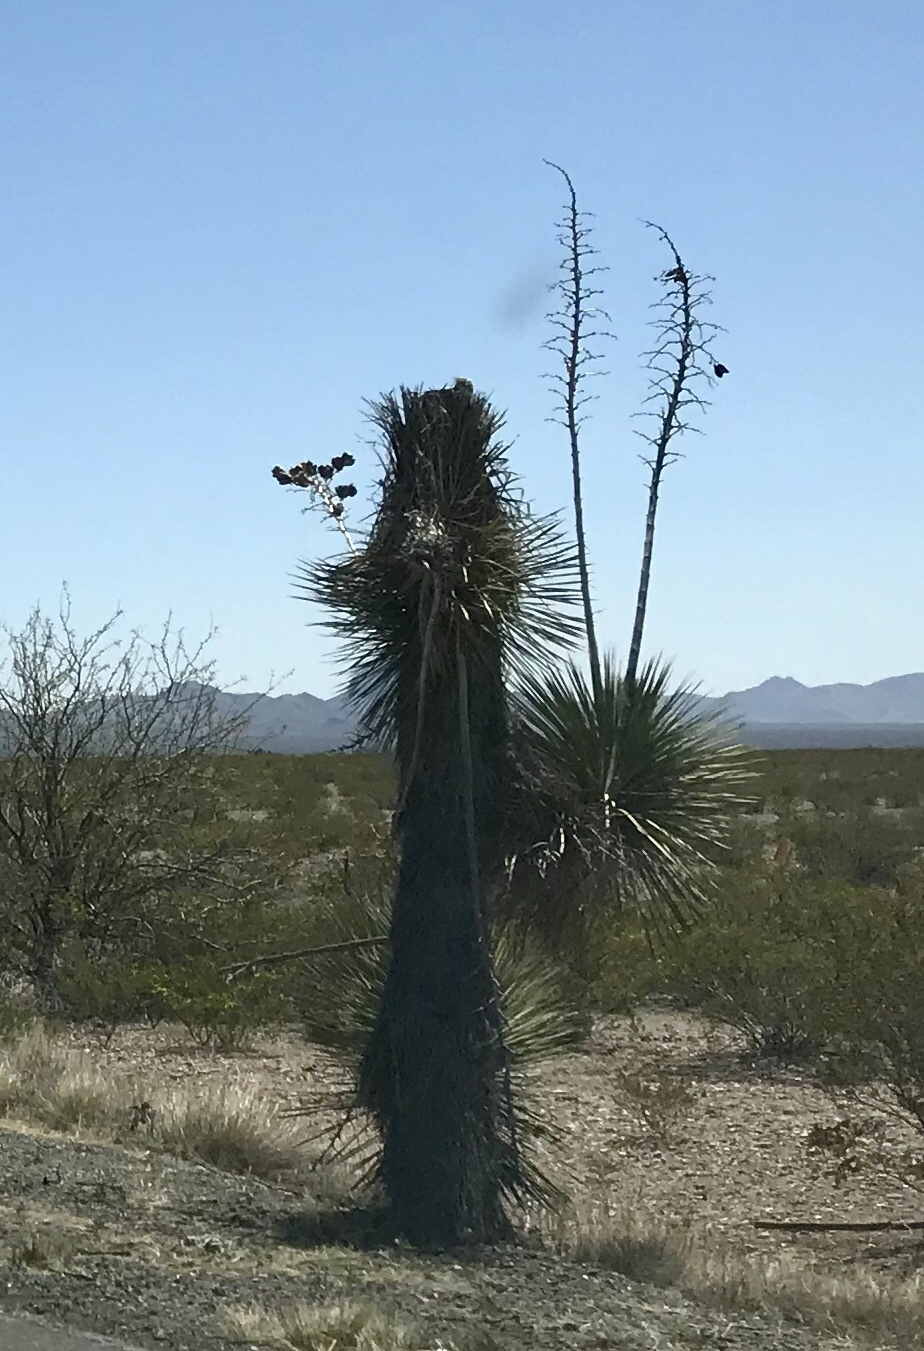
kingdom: Plantae
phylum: Tracheophyta
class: Liliopsida
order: Asparagales
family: Asparagaceae
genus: Yucca
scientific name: Yucca elata
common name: Palmella
